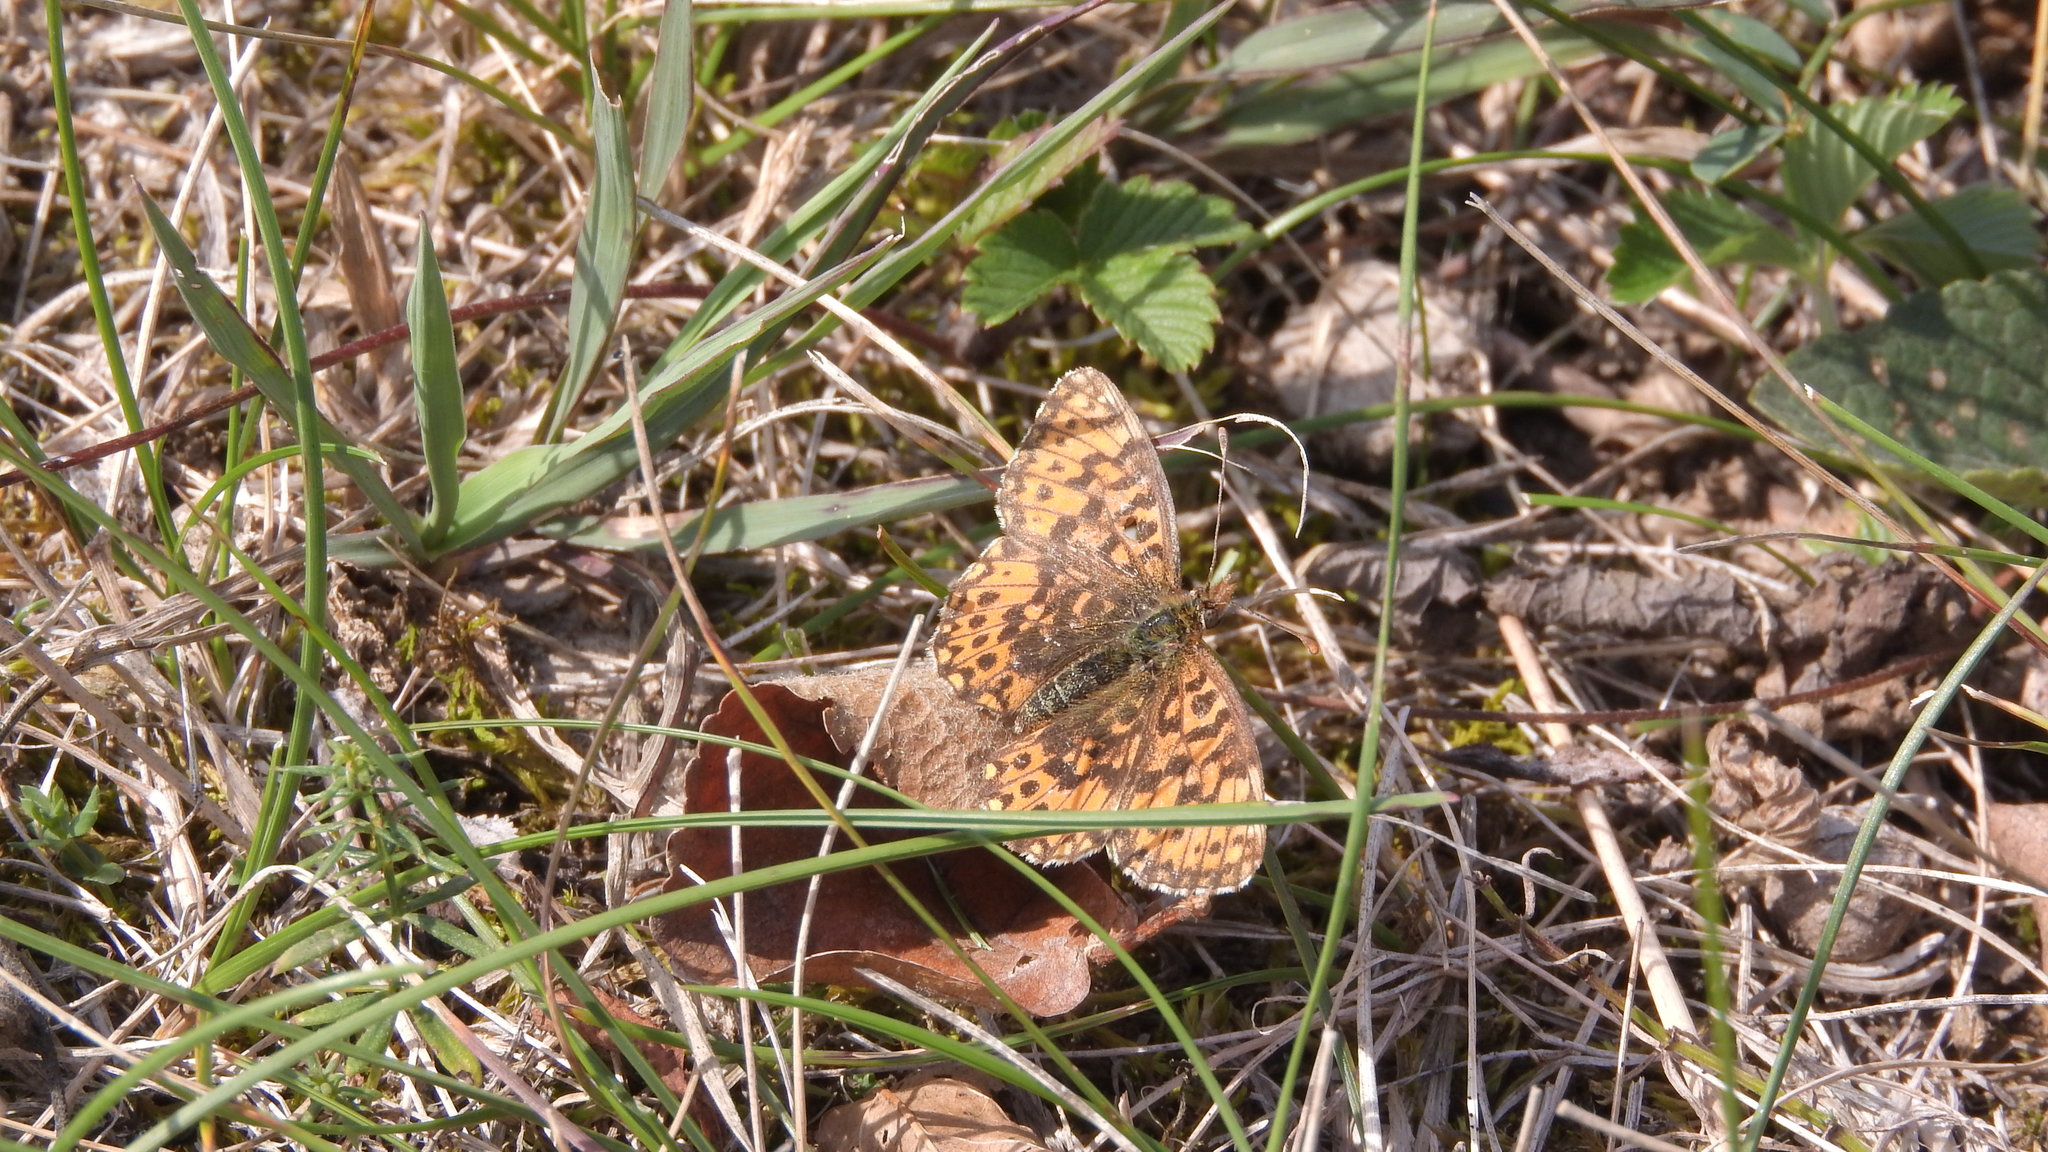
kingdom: Animalia
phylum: Arthropoda
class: Insecta
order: Lepidoptera
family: Nymphalidae
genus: Boloria
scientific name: Boloria dia
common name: Weaver's fritillary
